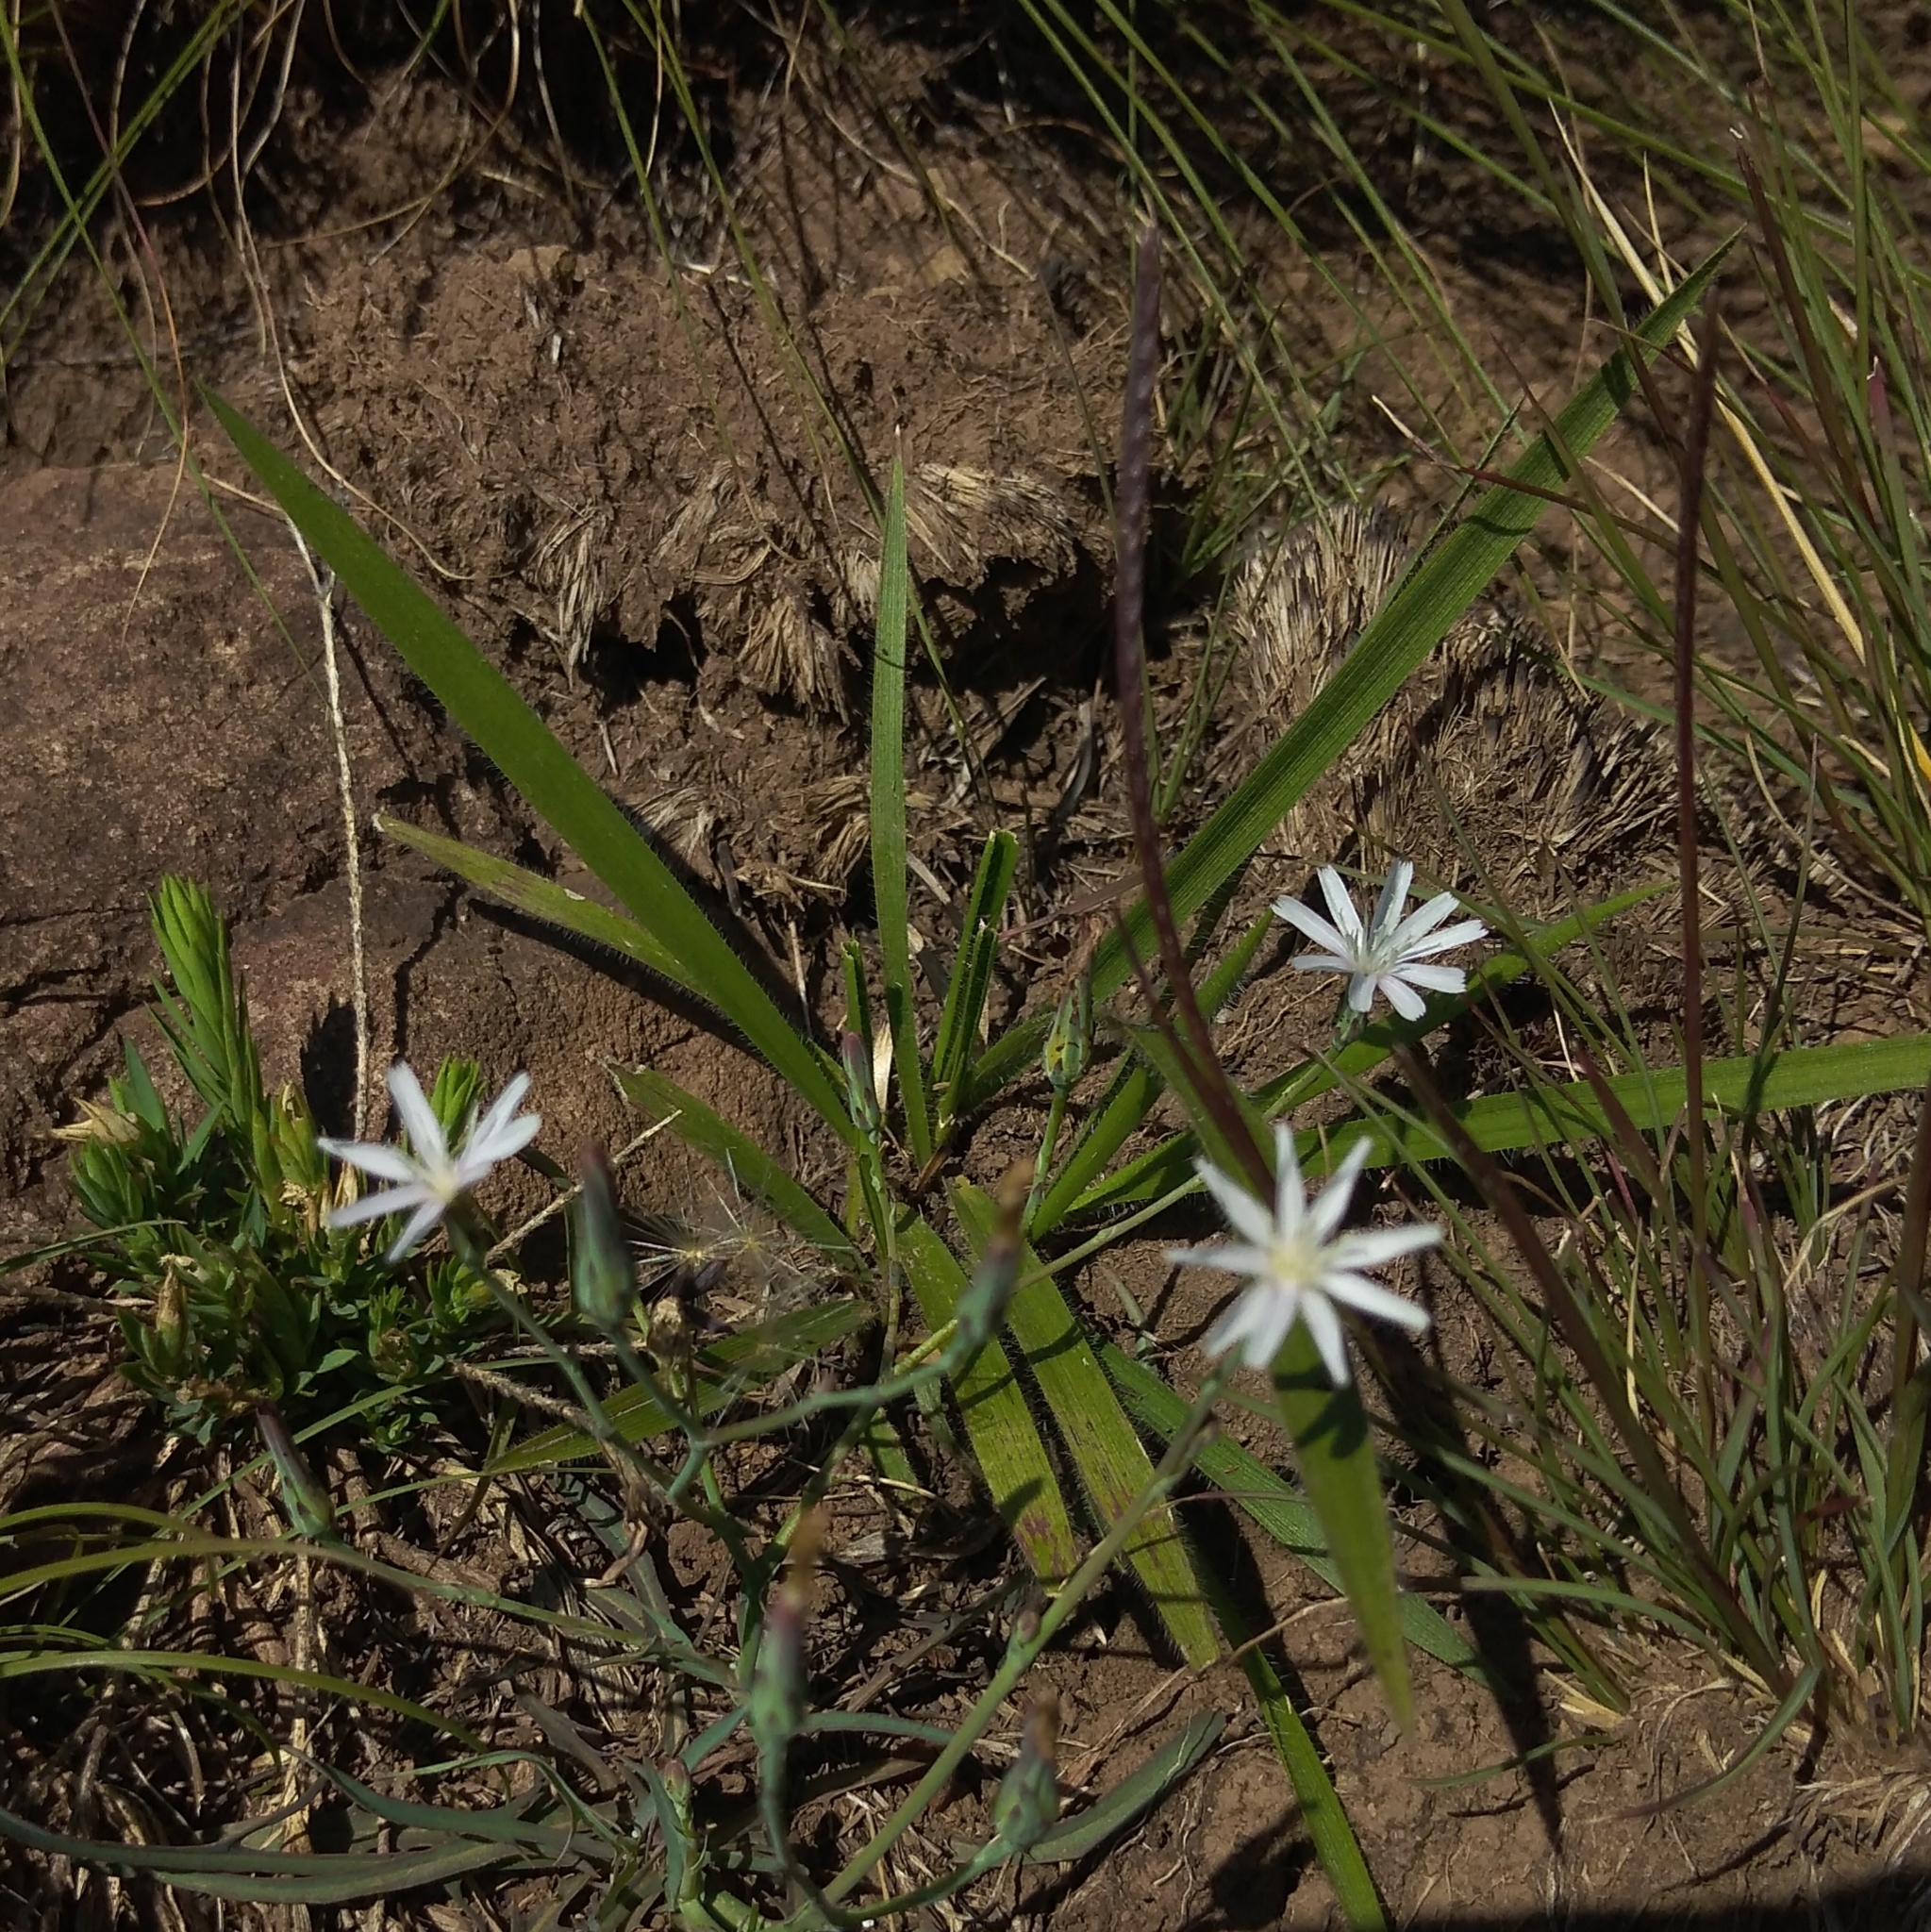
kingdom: Plantae
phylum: Tracheophyta
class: Magnoliopsida
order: Asterales
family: Asteraceae
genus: Lactuca
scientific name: Lactuca inermis
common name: Wild lettuce
